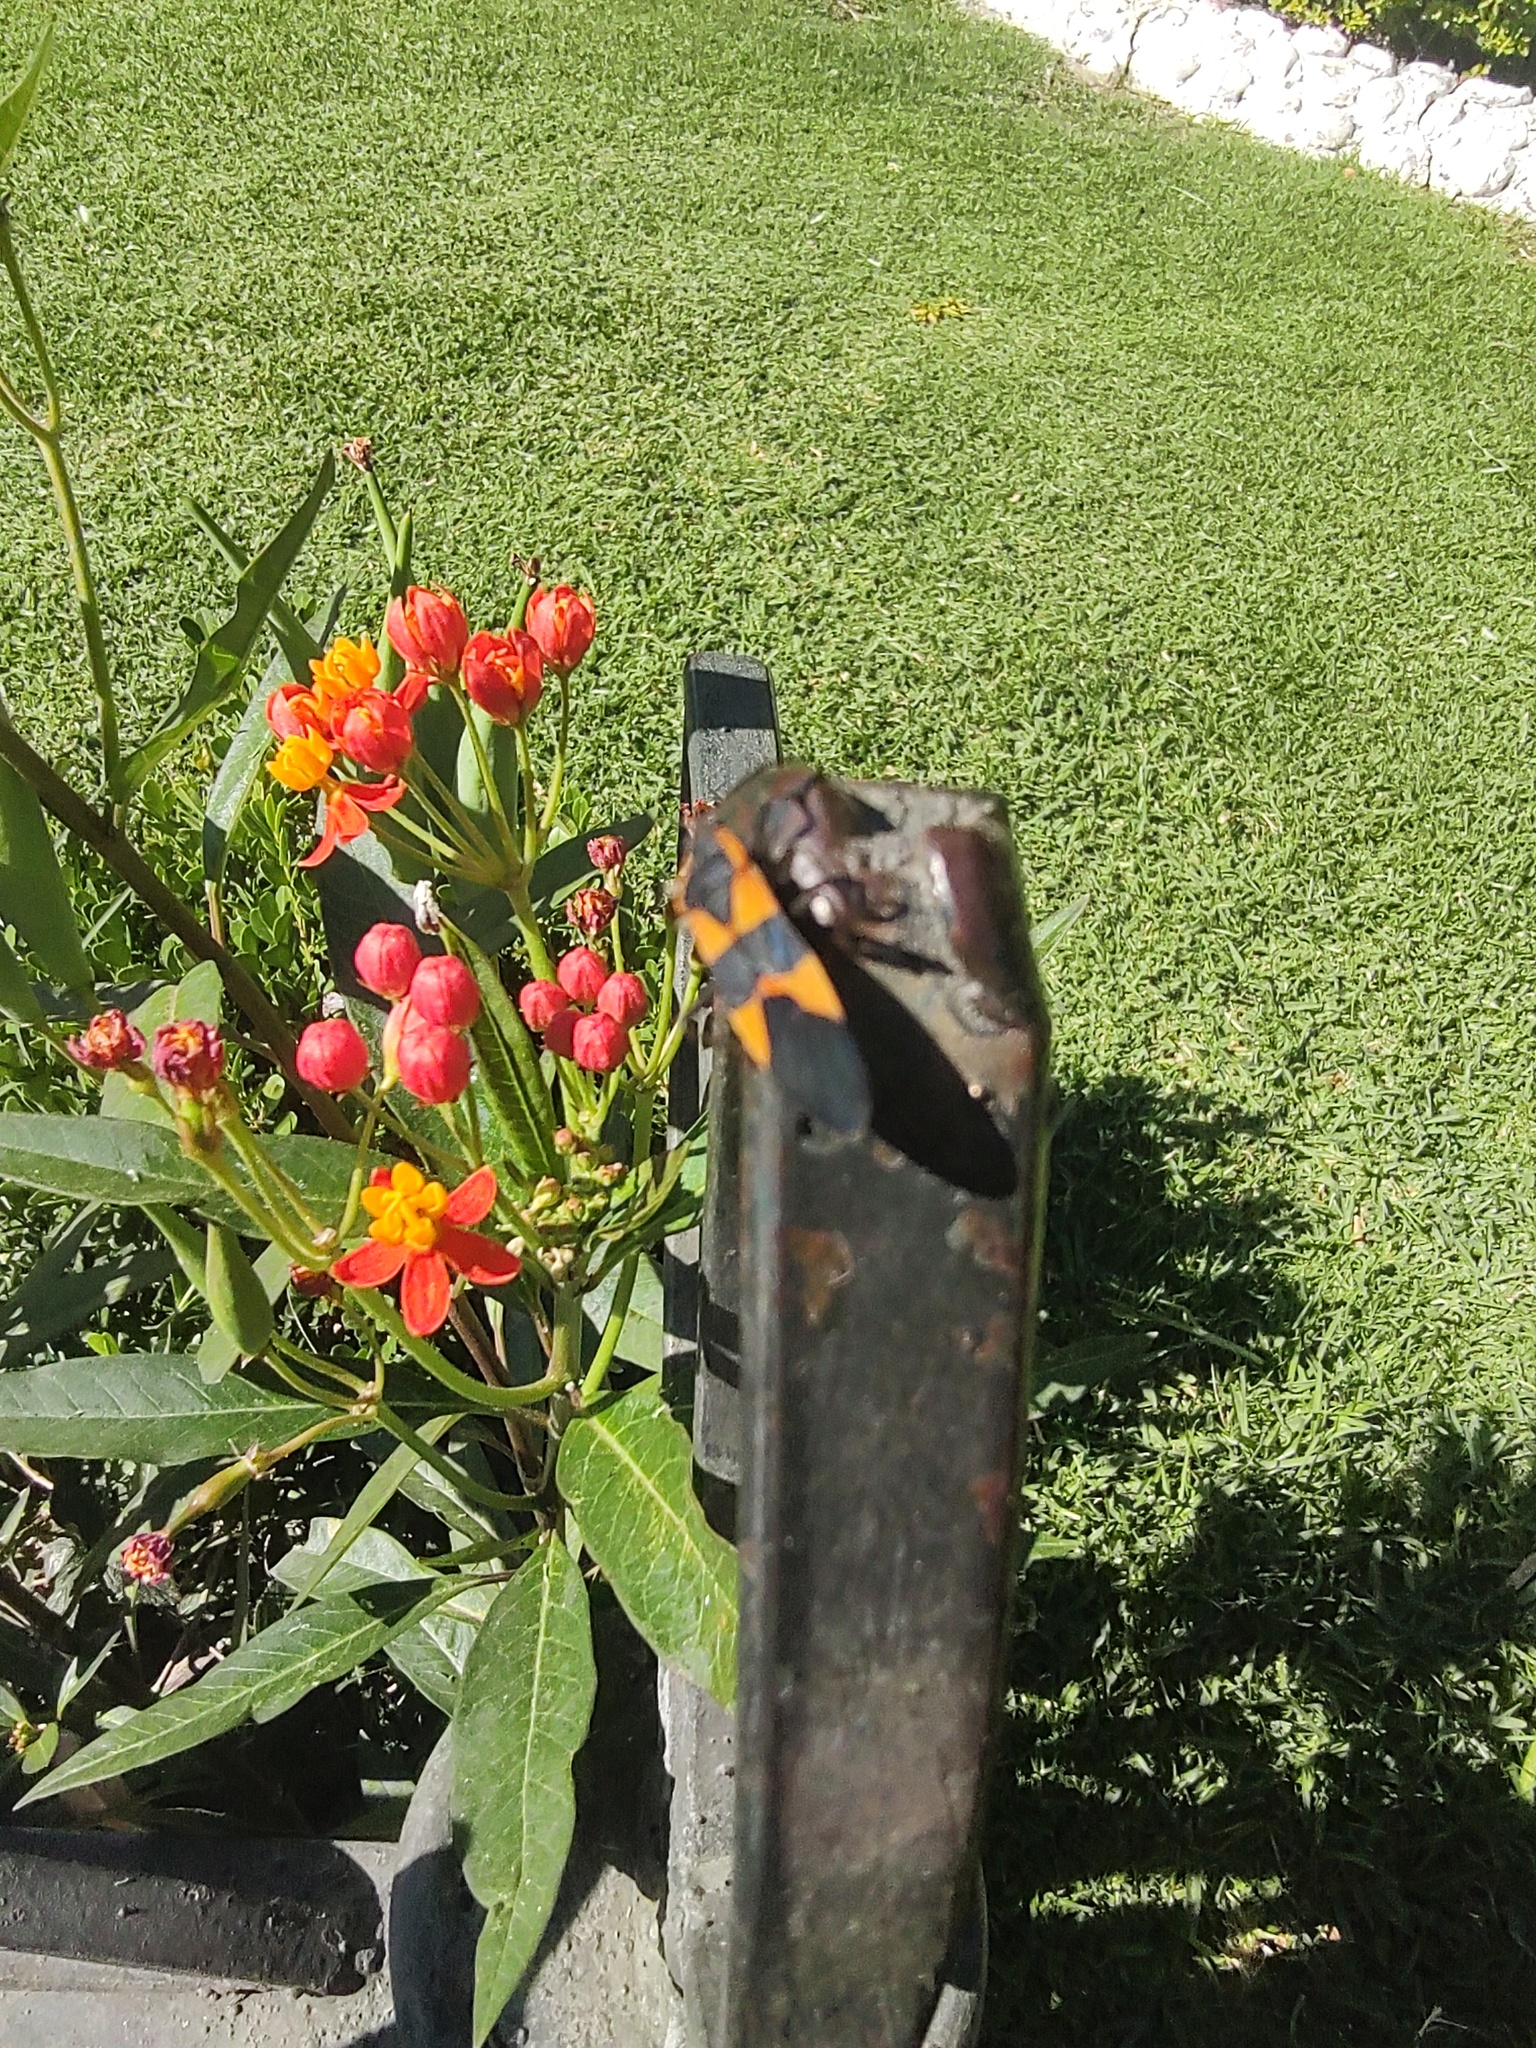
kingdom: Animalia
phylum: Arthropoda
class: Insecta
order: Hemiptera
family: Lygaeidae
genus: Oncopeltus
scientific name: Oncopeltus fasciatus
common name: Large milkweed bug
